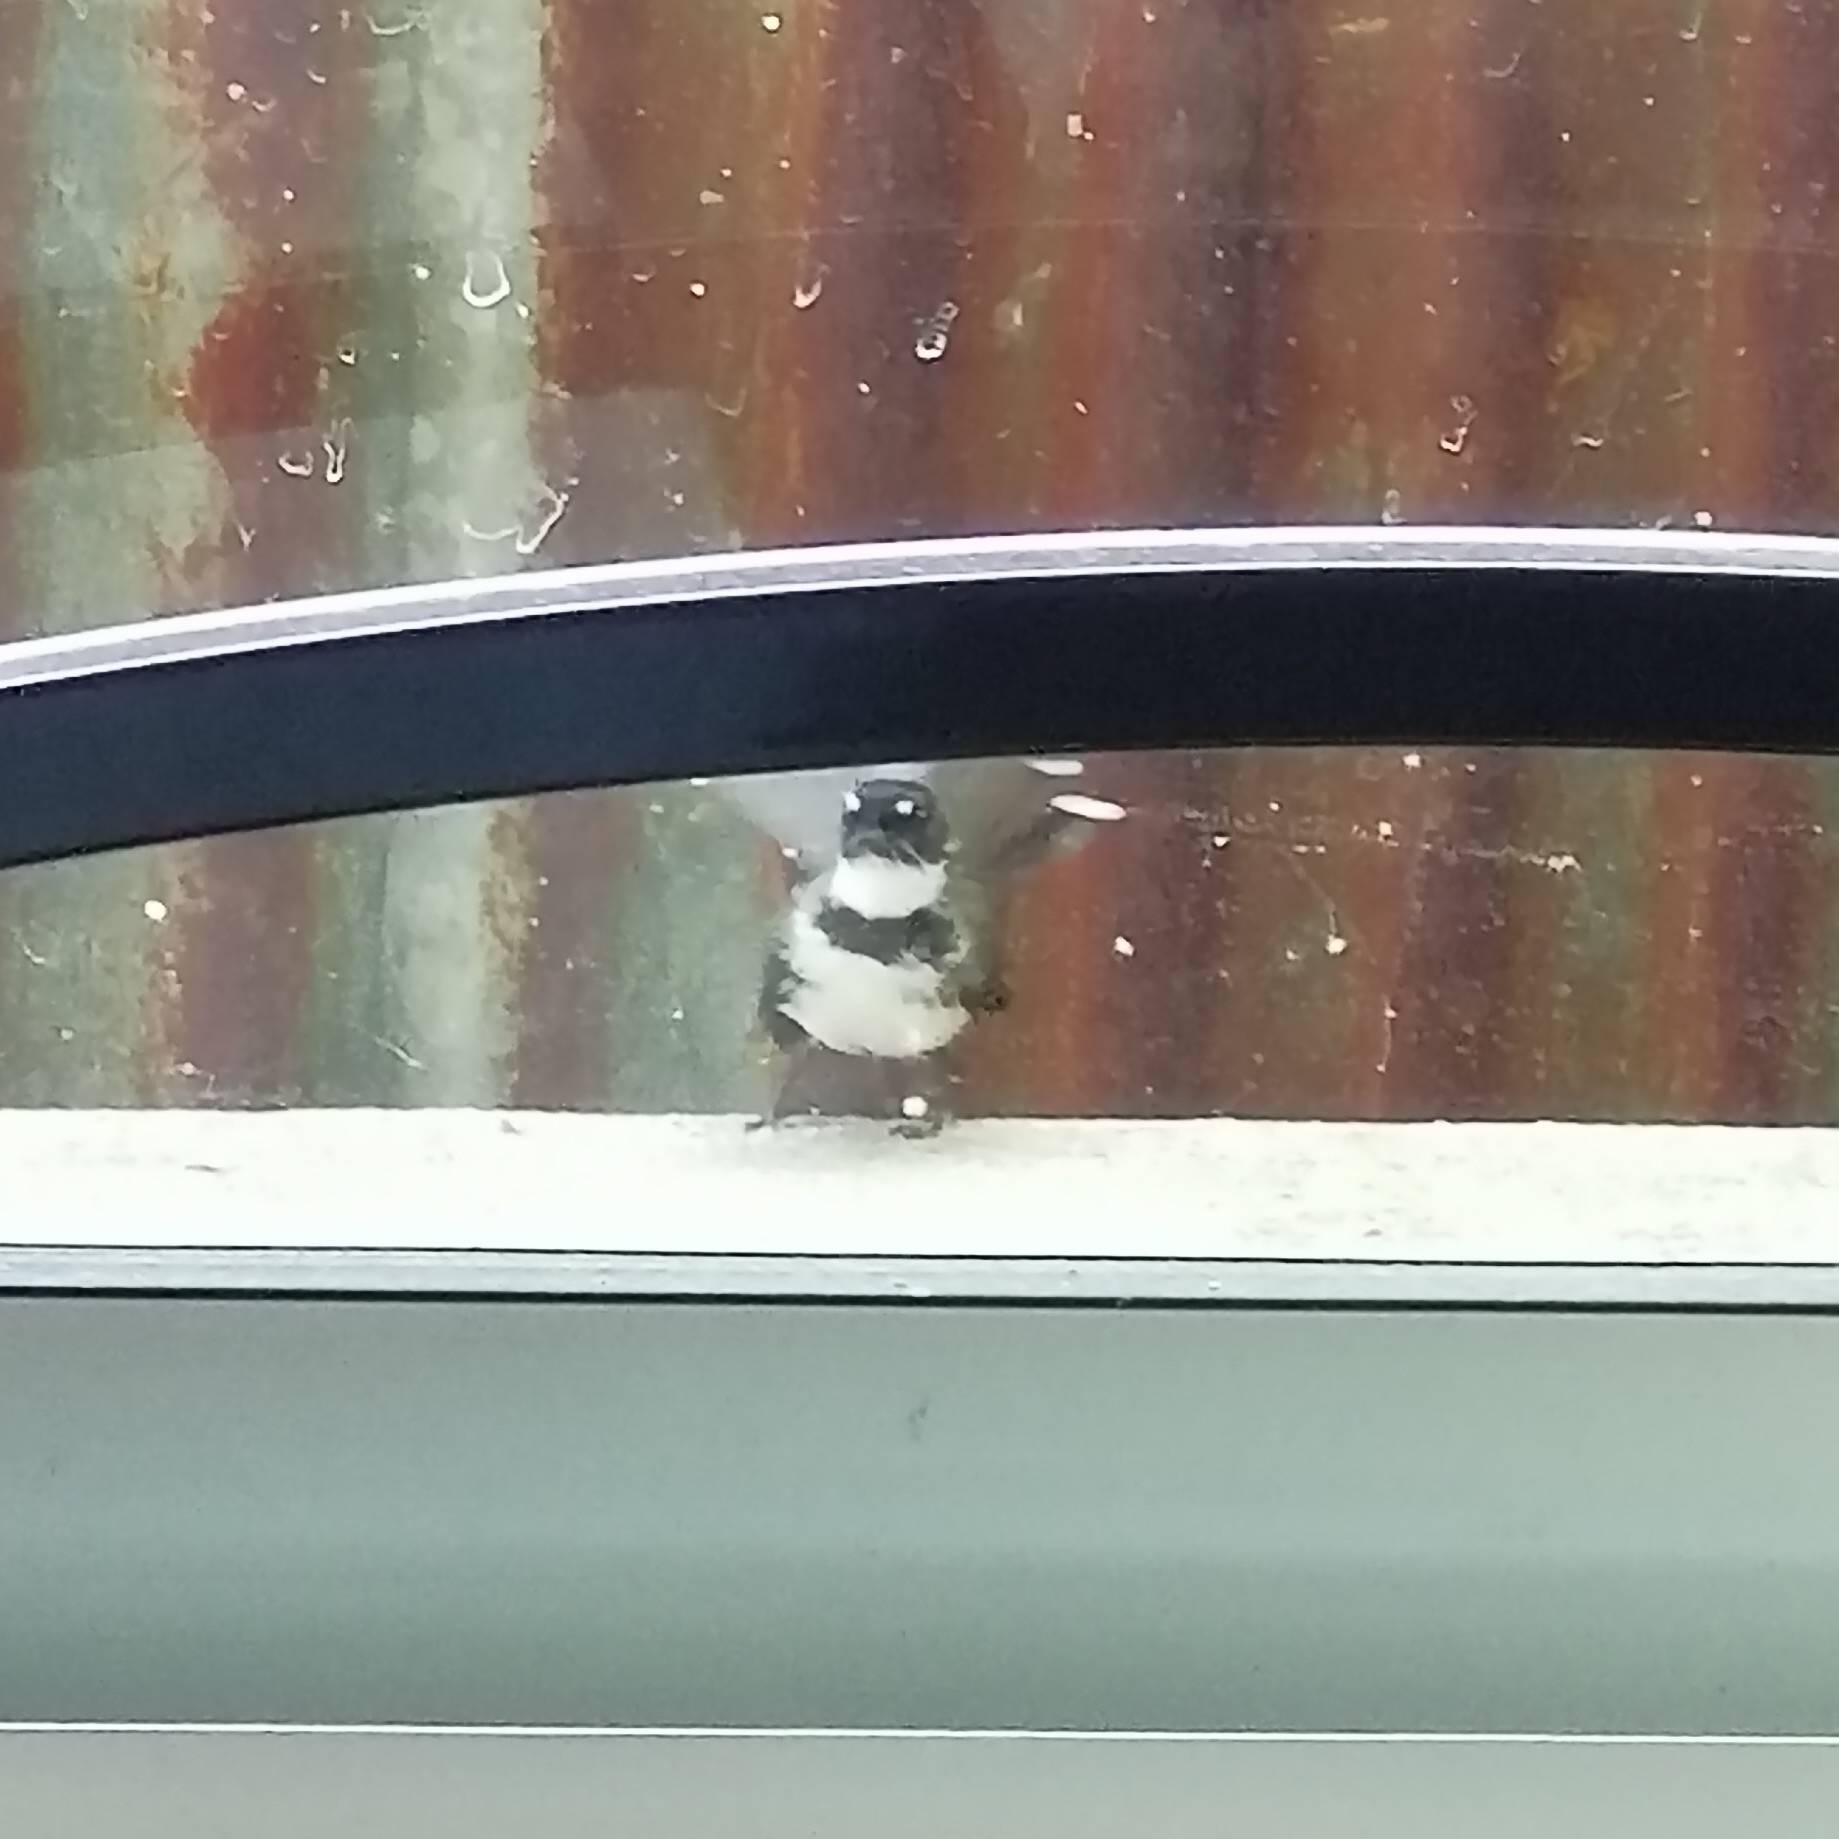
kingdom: Animalia
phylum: Chordata
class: Aves
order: Passeriformes
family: Rhipiduridae
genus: Rhipidura
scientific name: Rhipidura javanica
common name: Pied fantail
